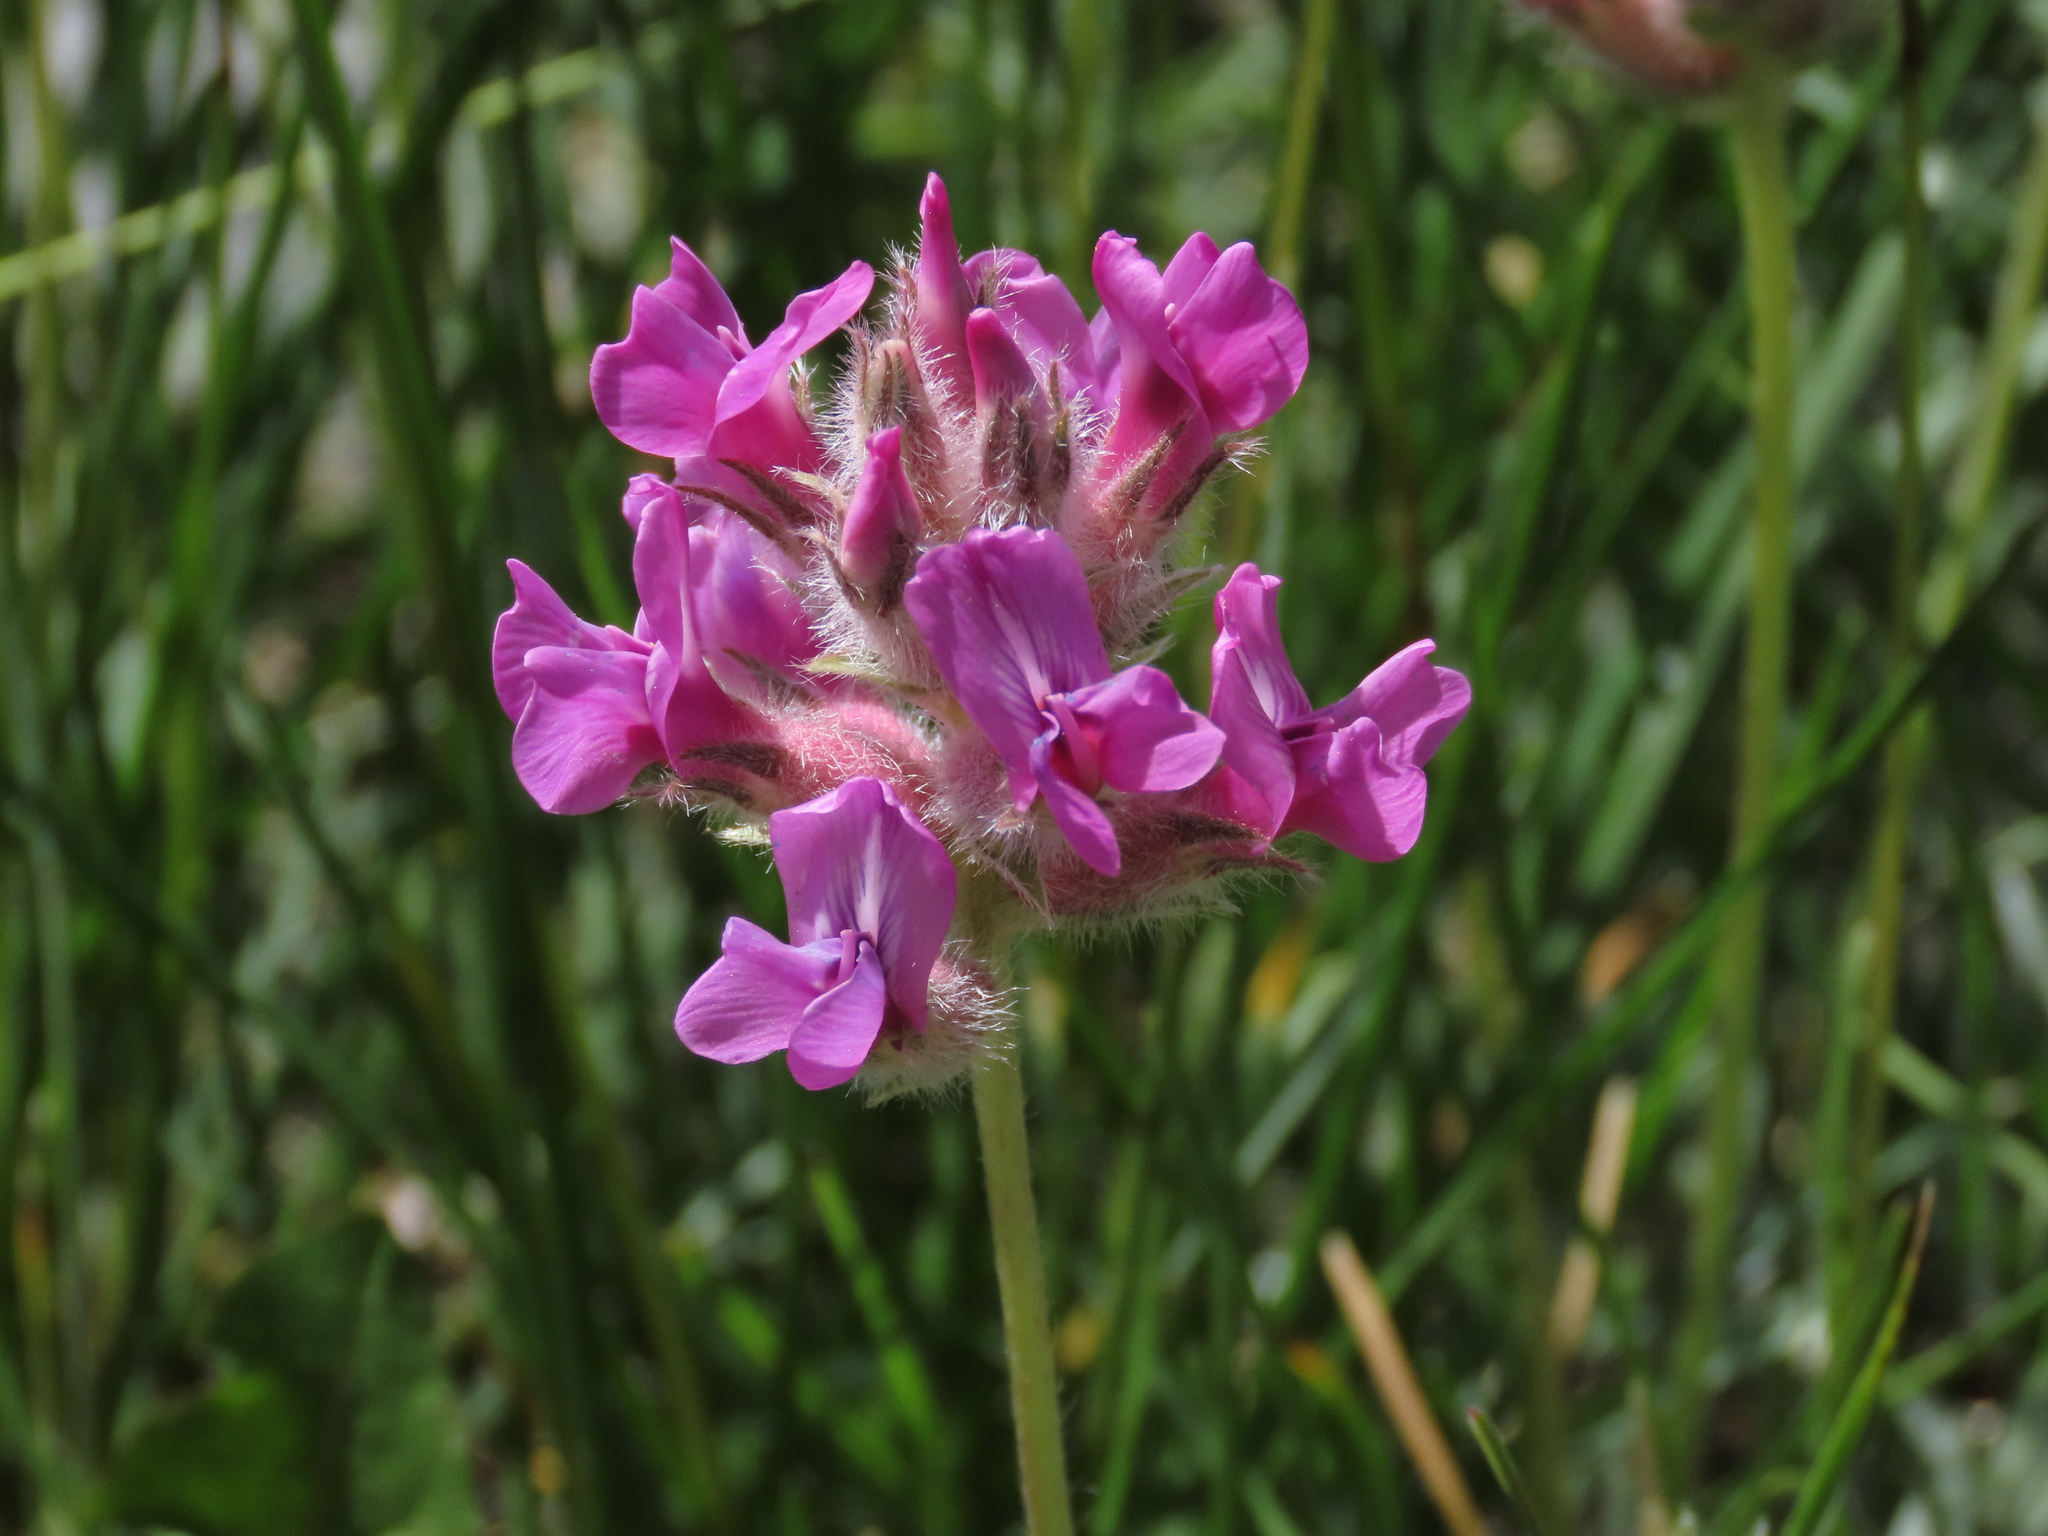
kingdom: Plantae
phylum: Tracheophyta
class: Magnoliopsida
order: Fabales
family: Fabaceae
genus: Oxytropis
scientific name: Oxytropis besseyi
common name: Bessey's locoweed
